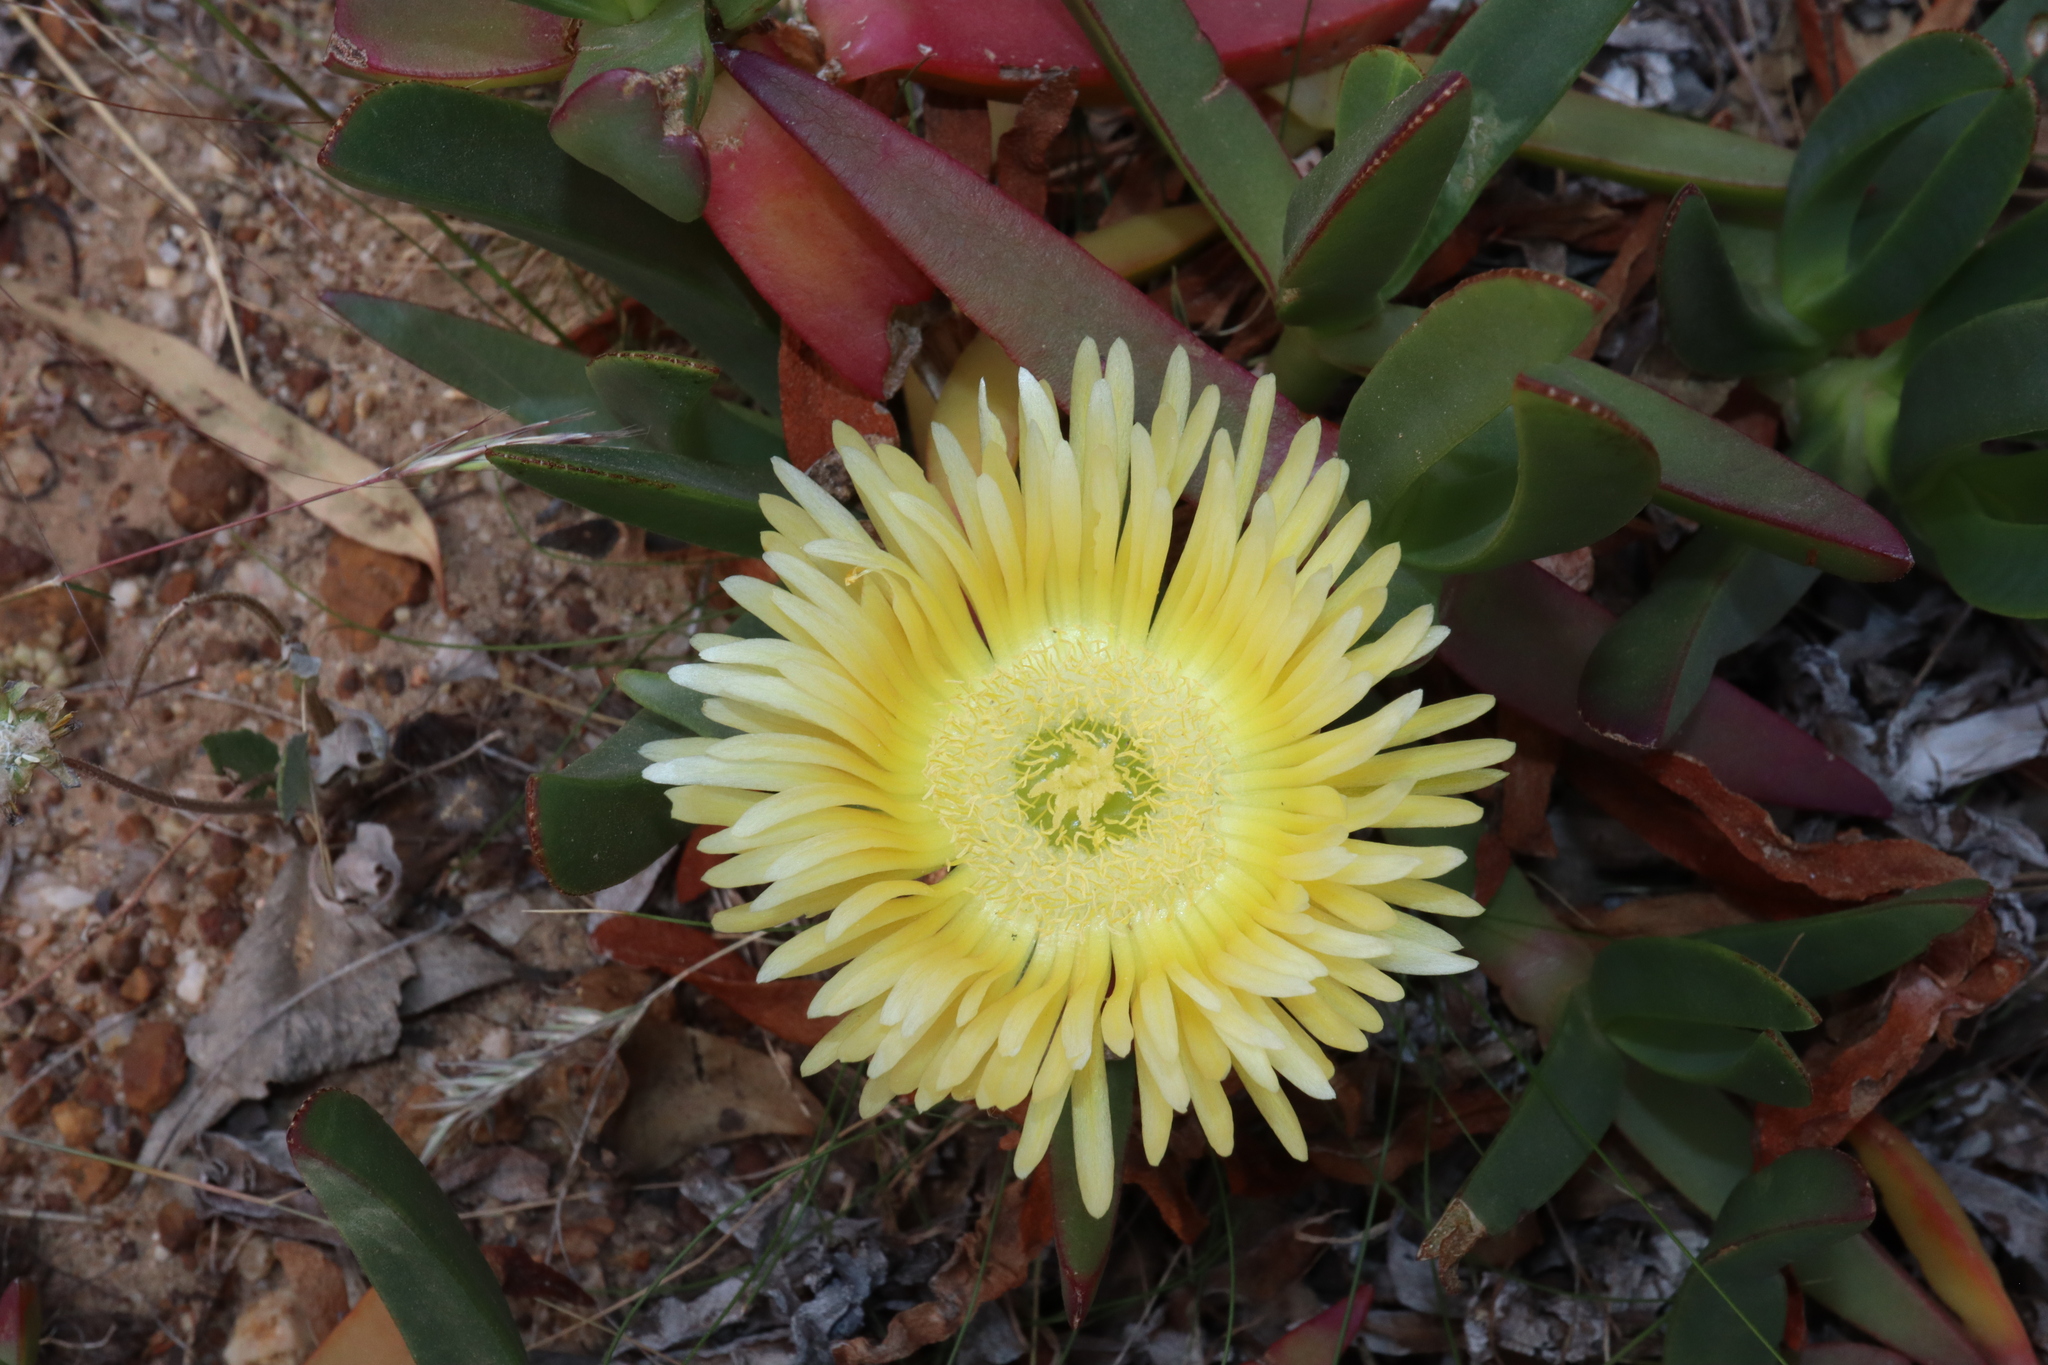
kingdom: Plantae
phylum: Tracheophyta
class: Magnoliopsida
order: Caryophyllales
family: Aizoaceae
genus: Carpobrotus
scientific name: Carpobrotus edulis
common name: Hottentot-fig
